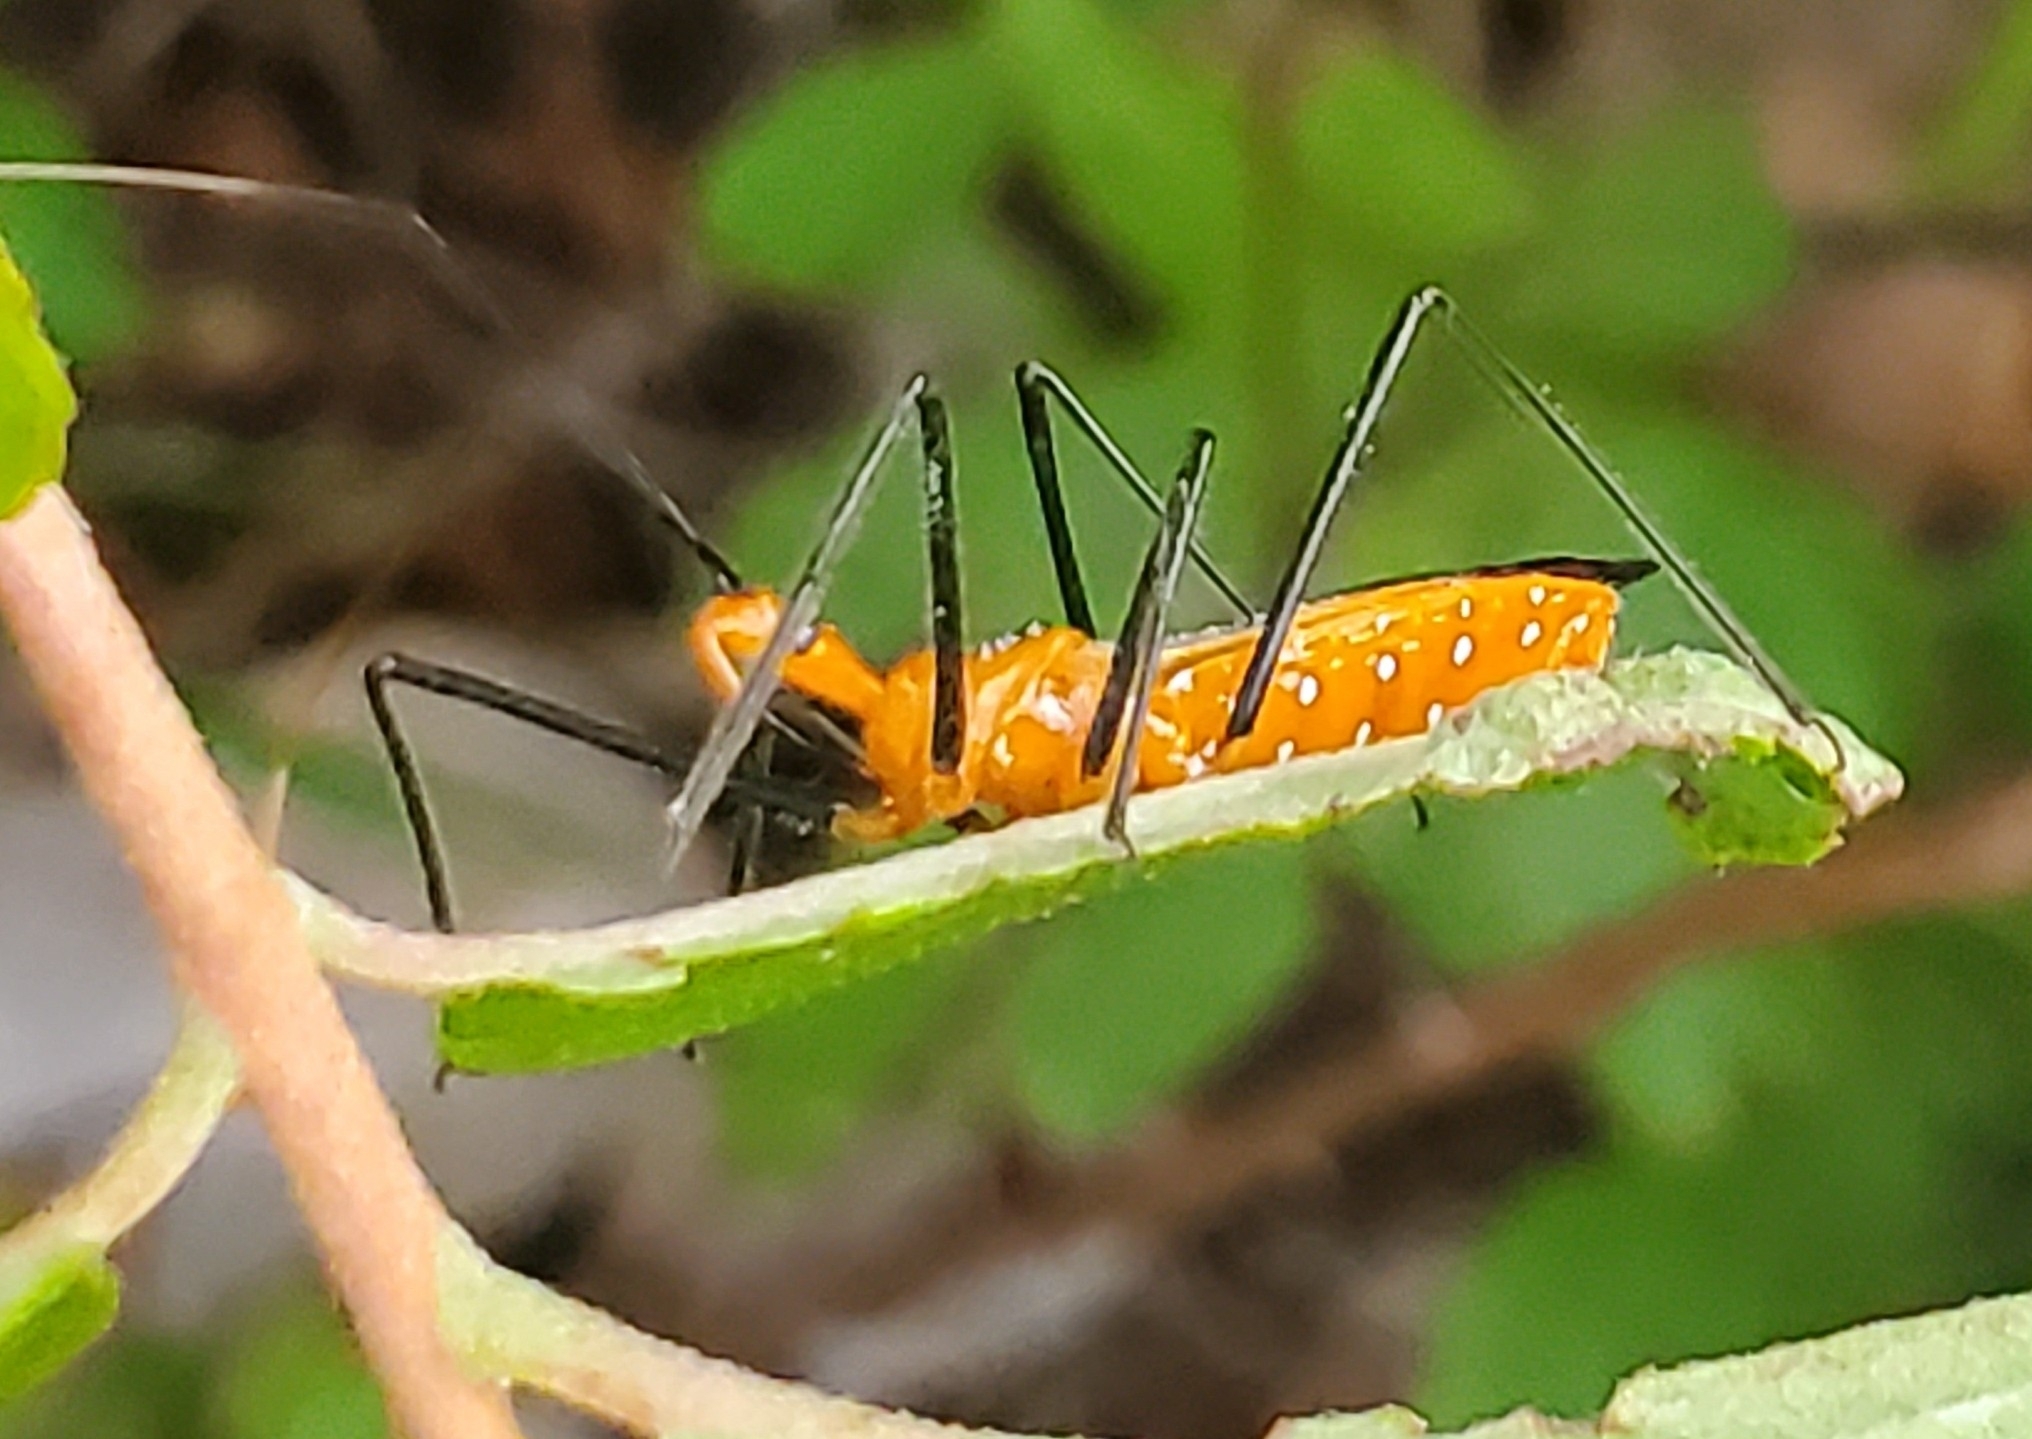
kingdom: Animalia
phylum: Arthropoda
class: Insecta
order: Hemiptera
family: Reduviidae
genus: Zelus
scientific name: Zelus longipes
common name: Milkweed assassin bug
